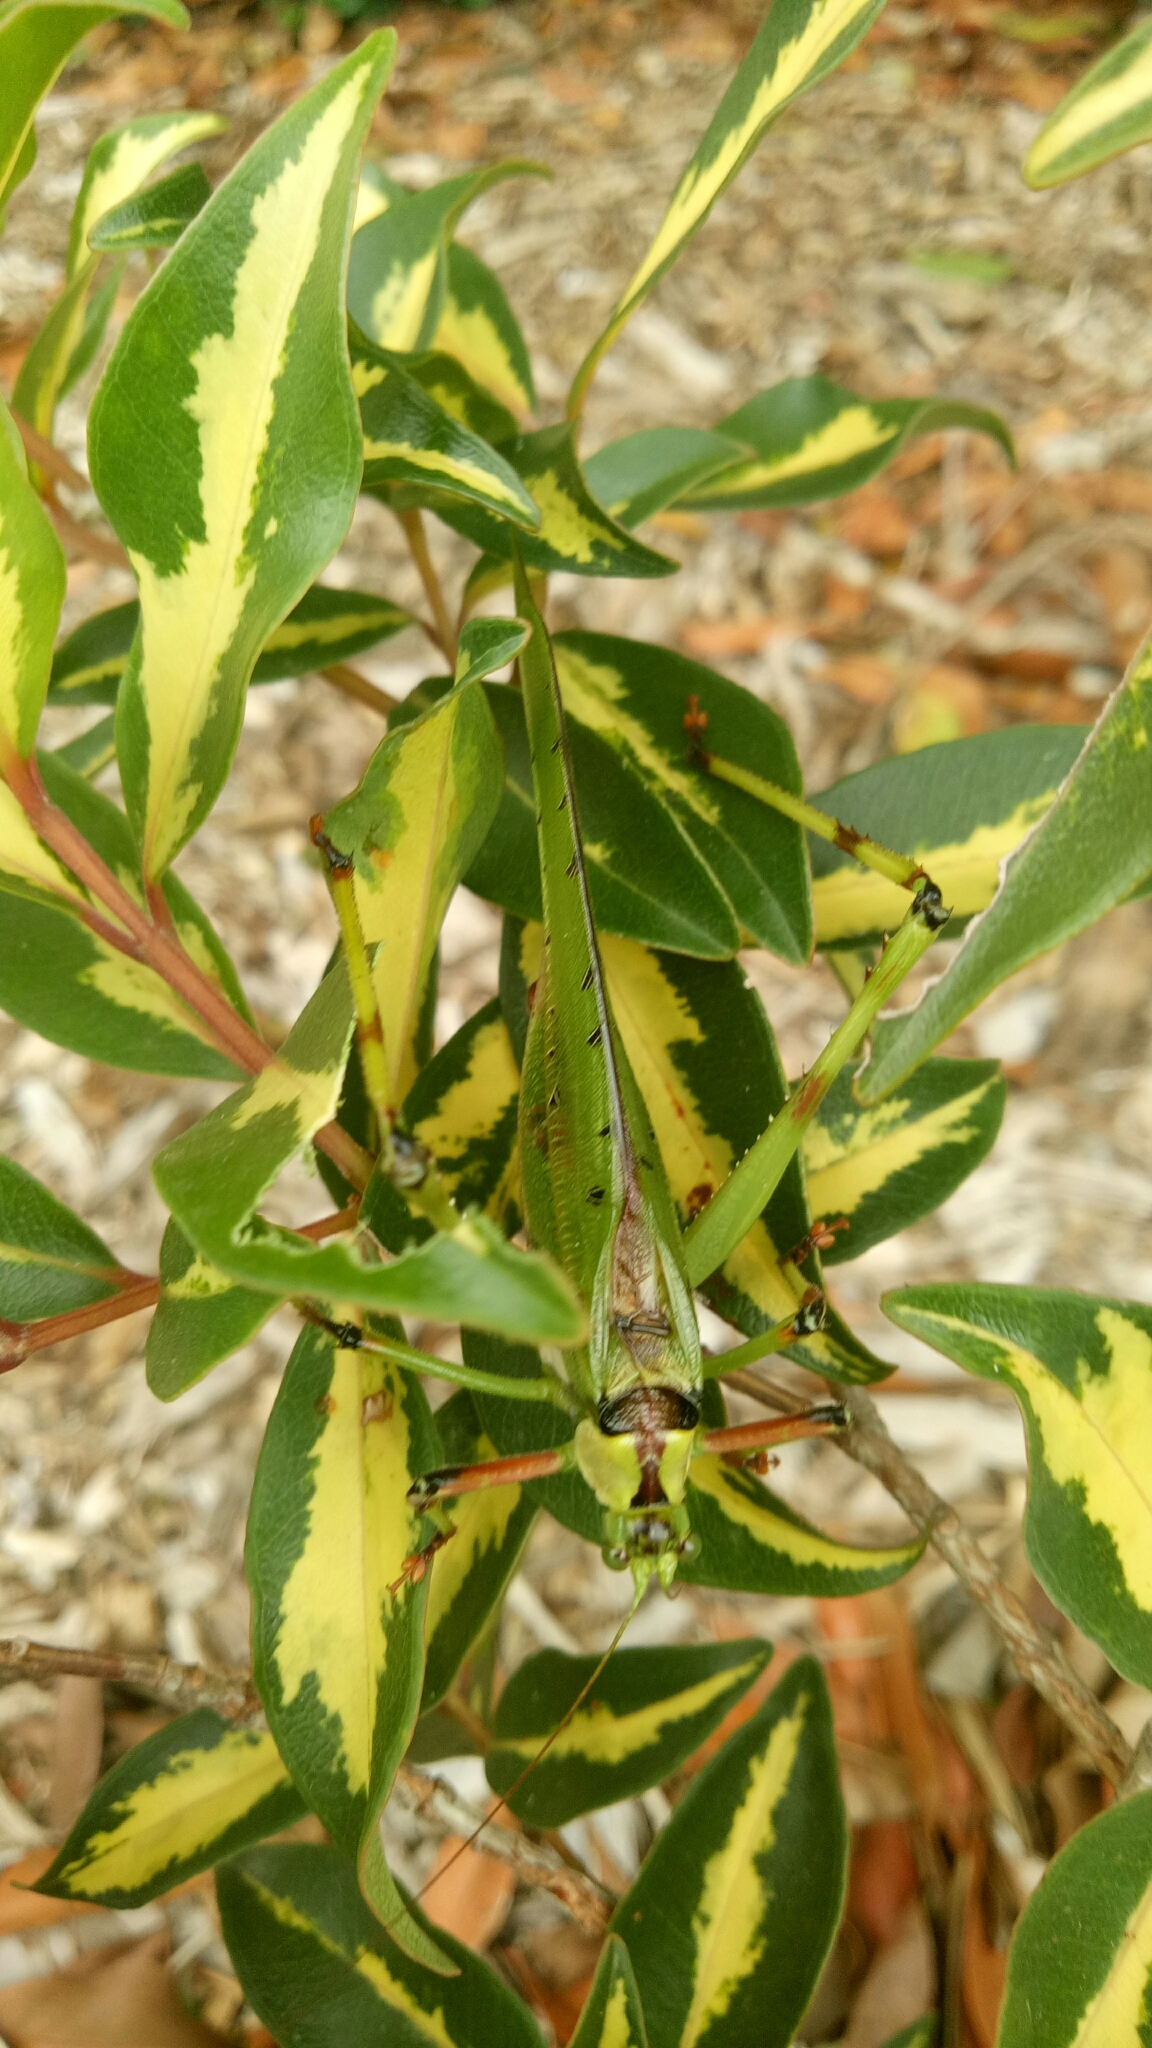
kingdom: Animalia
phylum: Arthropoda
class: Insecta
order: Orthoptera
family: Tettigoniidae
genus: Ephippitytha
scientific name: Ephippitytha trigintiduoguttata
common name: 32-spotted katydid
